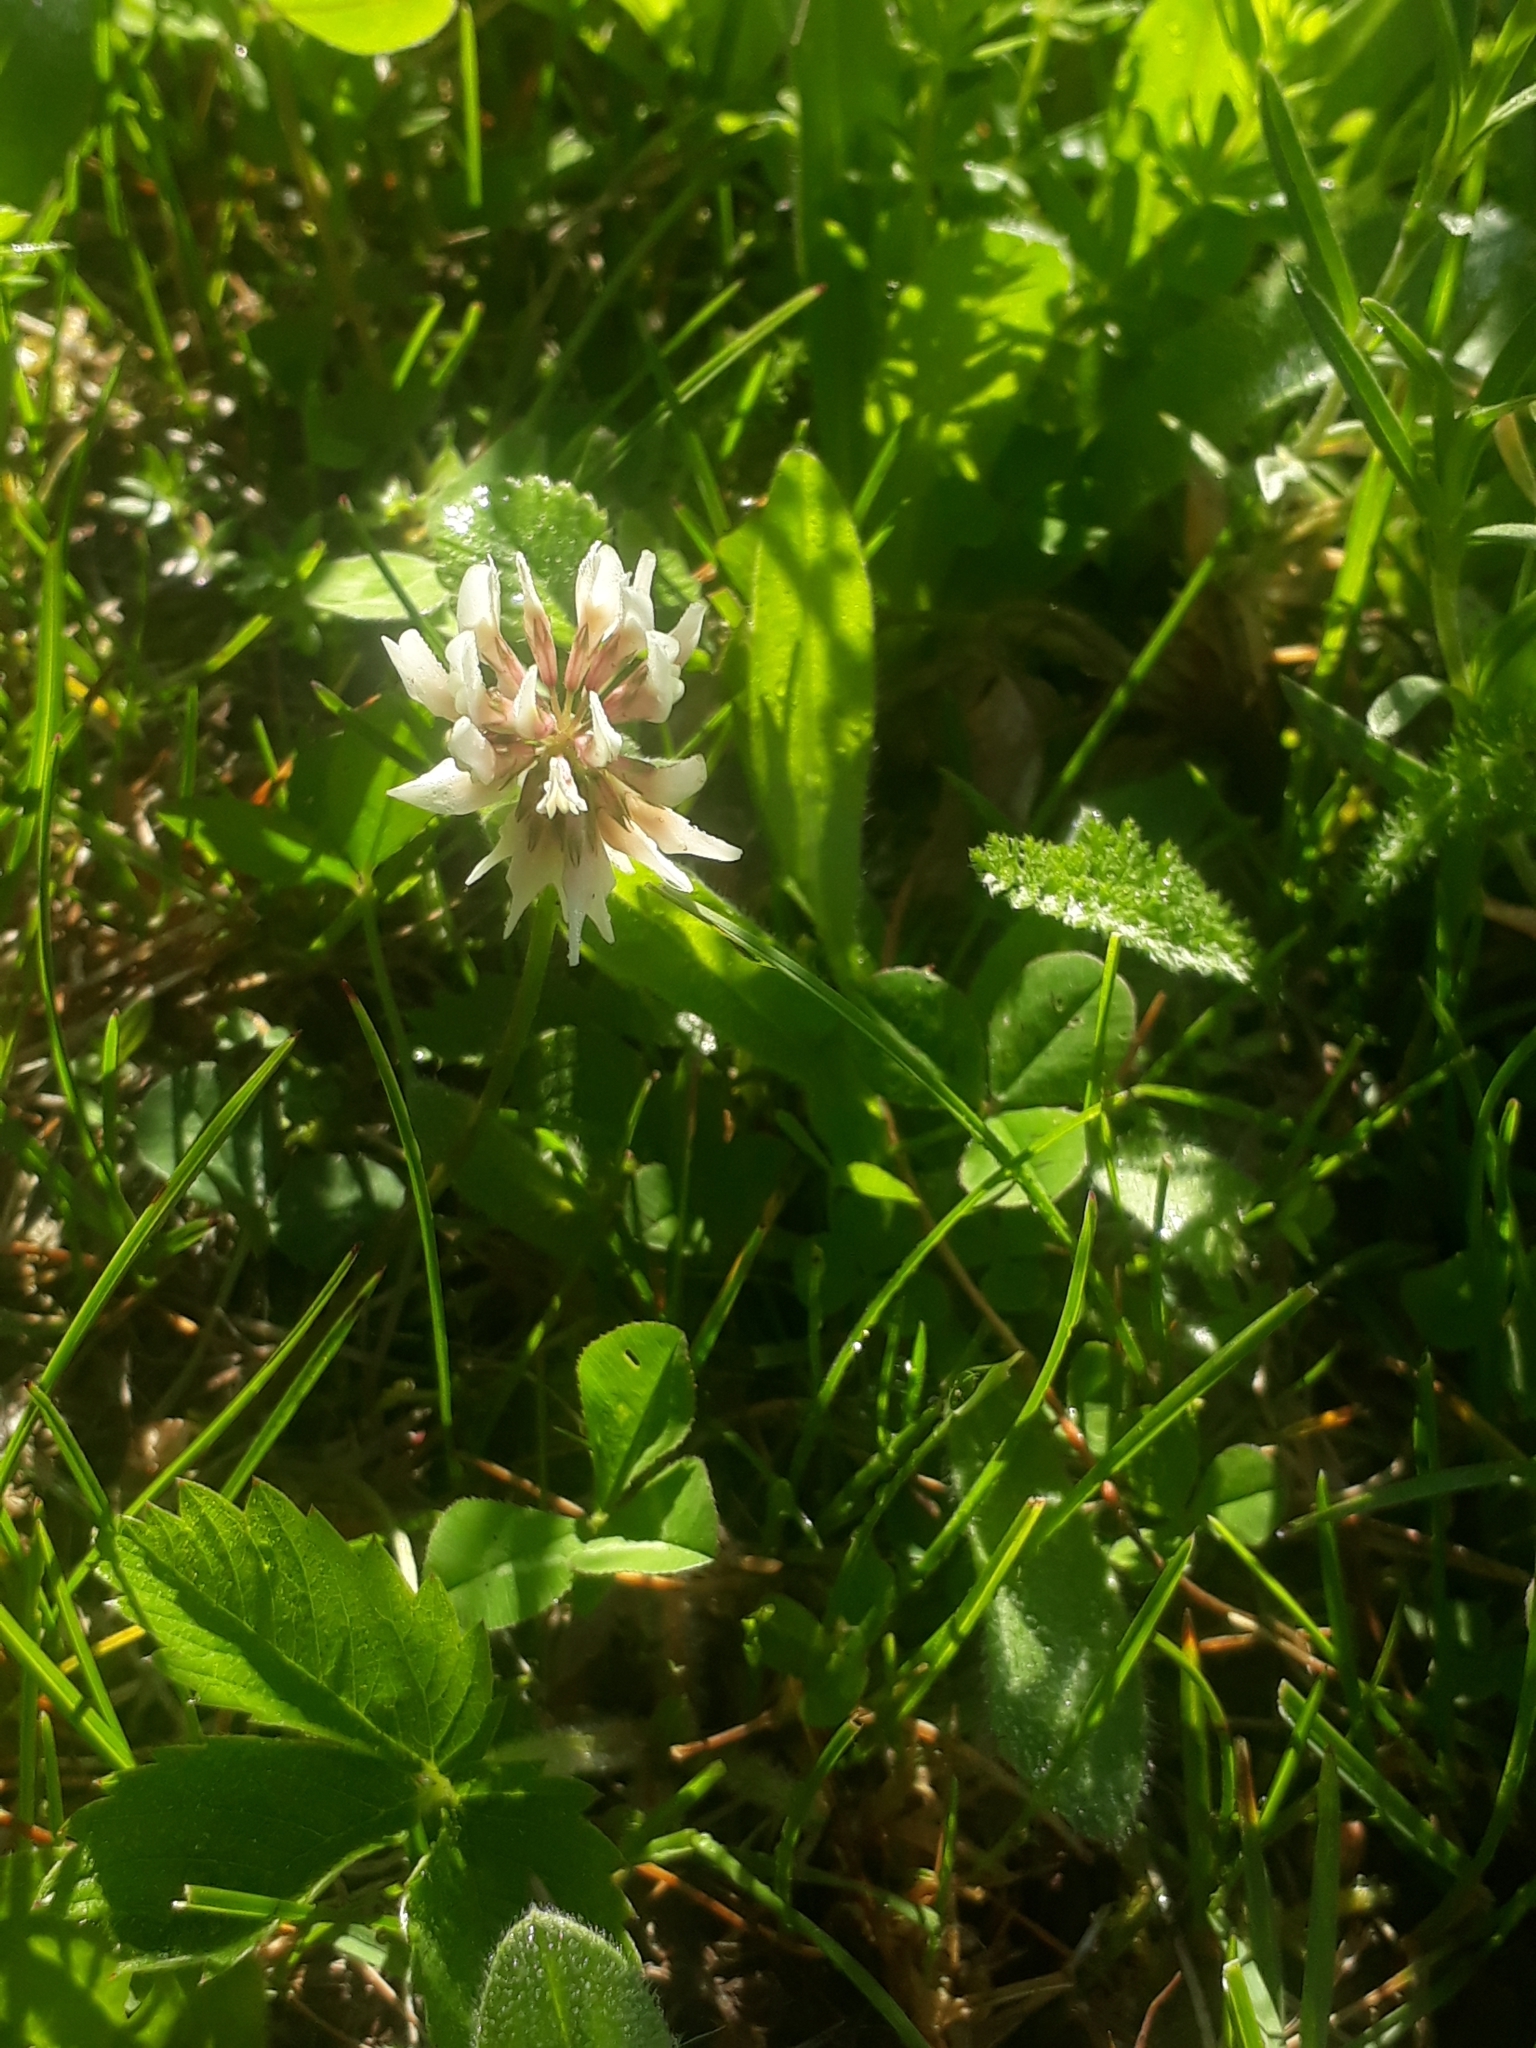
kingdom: Plantae
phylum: Tracheophyta
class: Magnoliopsida
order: Fabales
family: Fabaceae
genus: Trifolium
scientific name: Trifolium repens
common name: White clover
